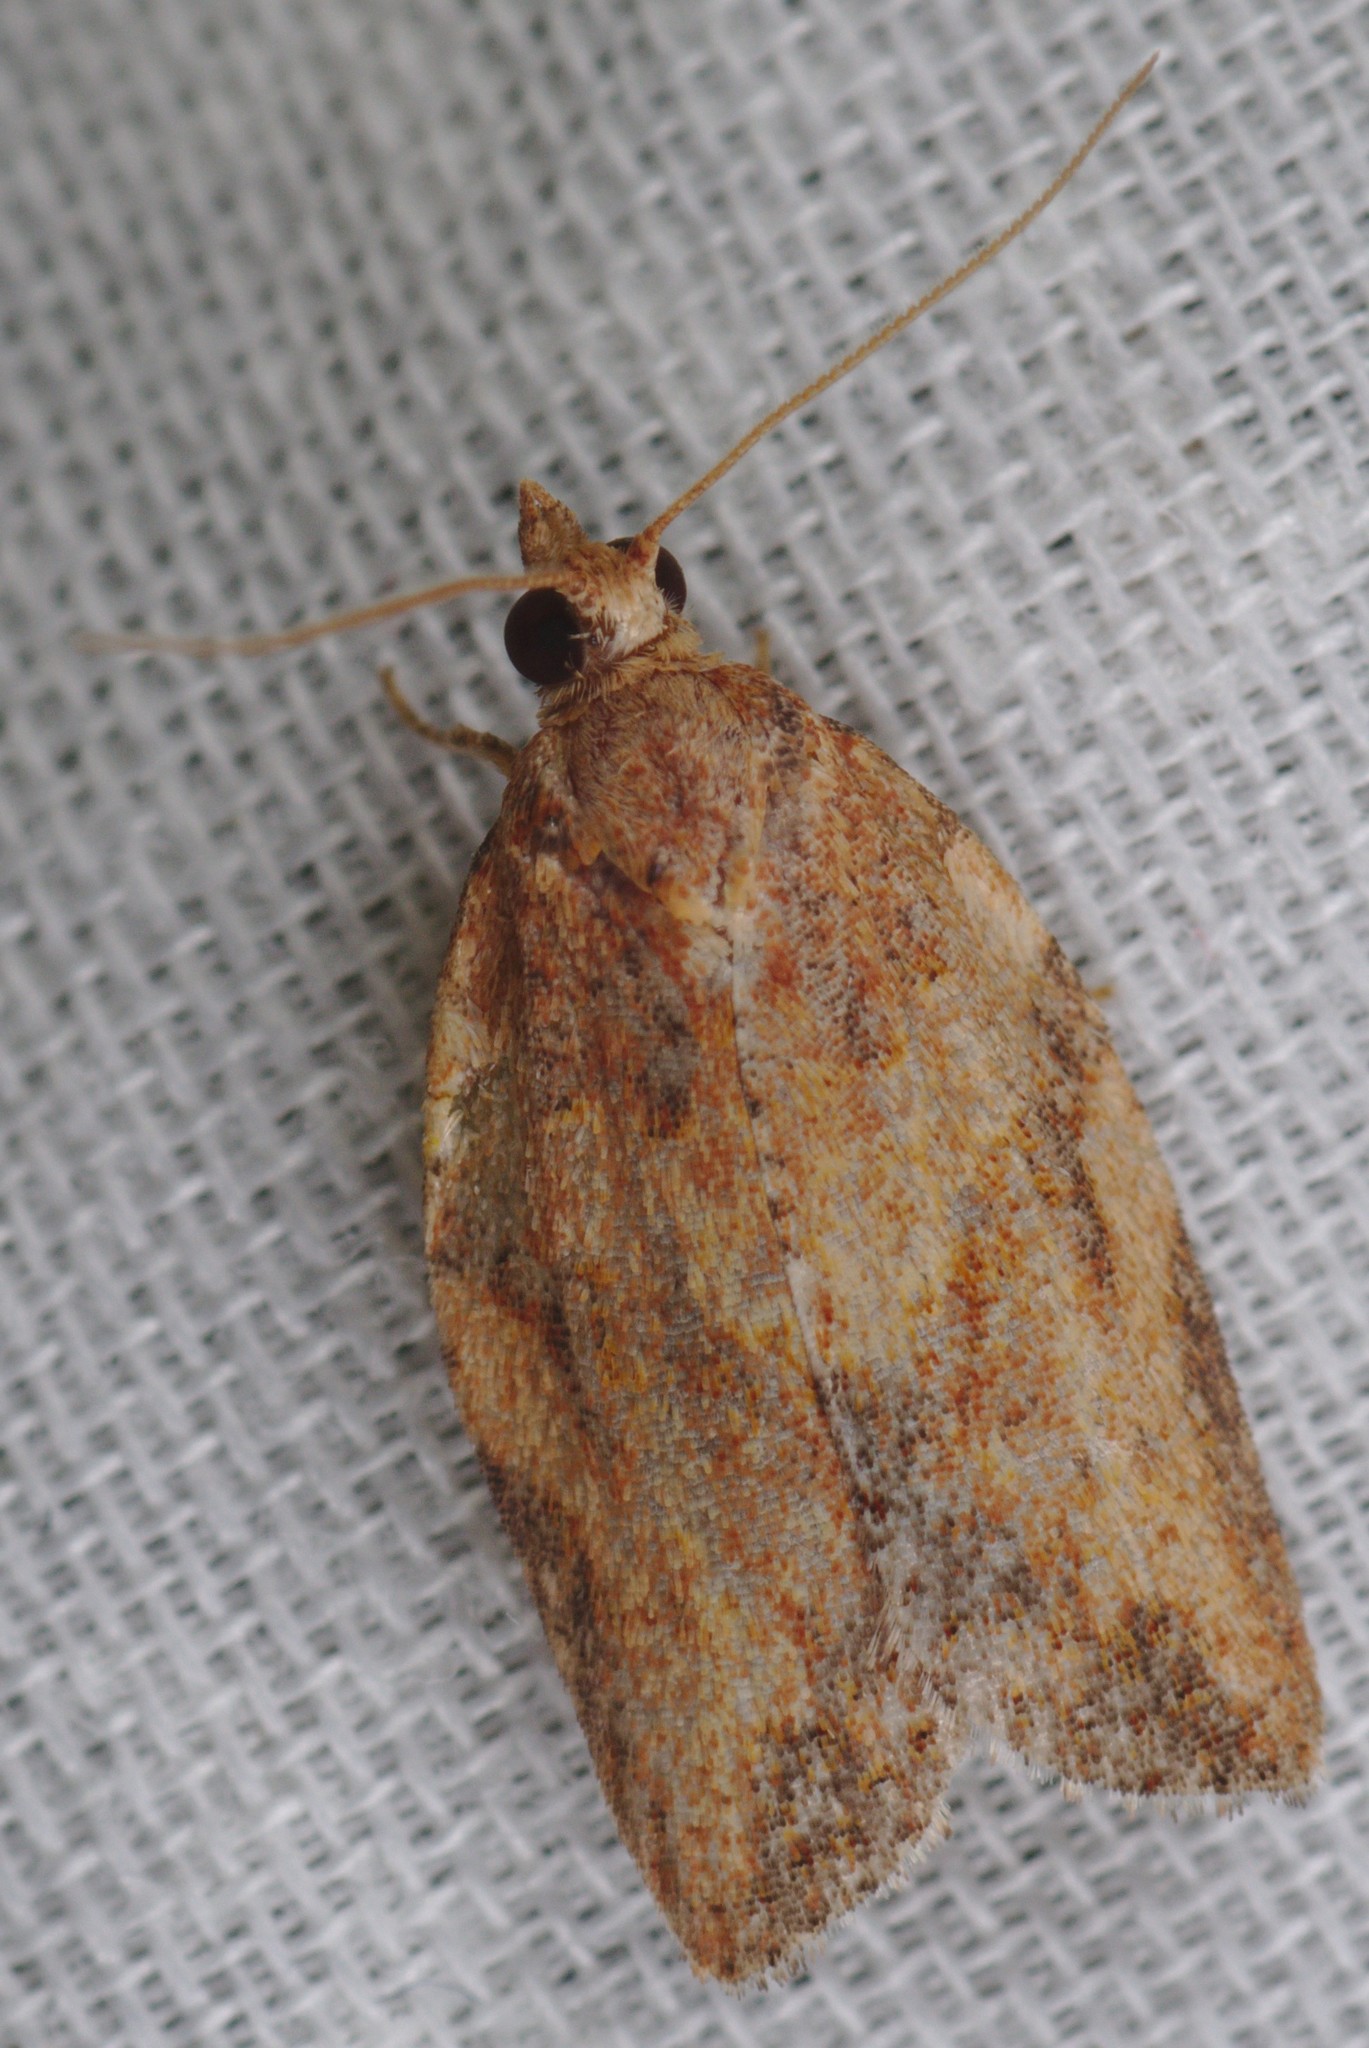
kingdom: Animalia
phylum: Arthropoda
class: Insecta
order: Lepidoptera
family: Tortricidae
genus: Epiphyas
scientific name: Epiphyas postvittana
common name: Light brown apple moth
